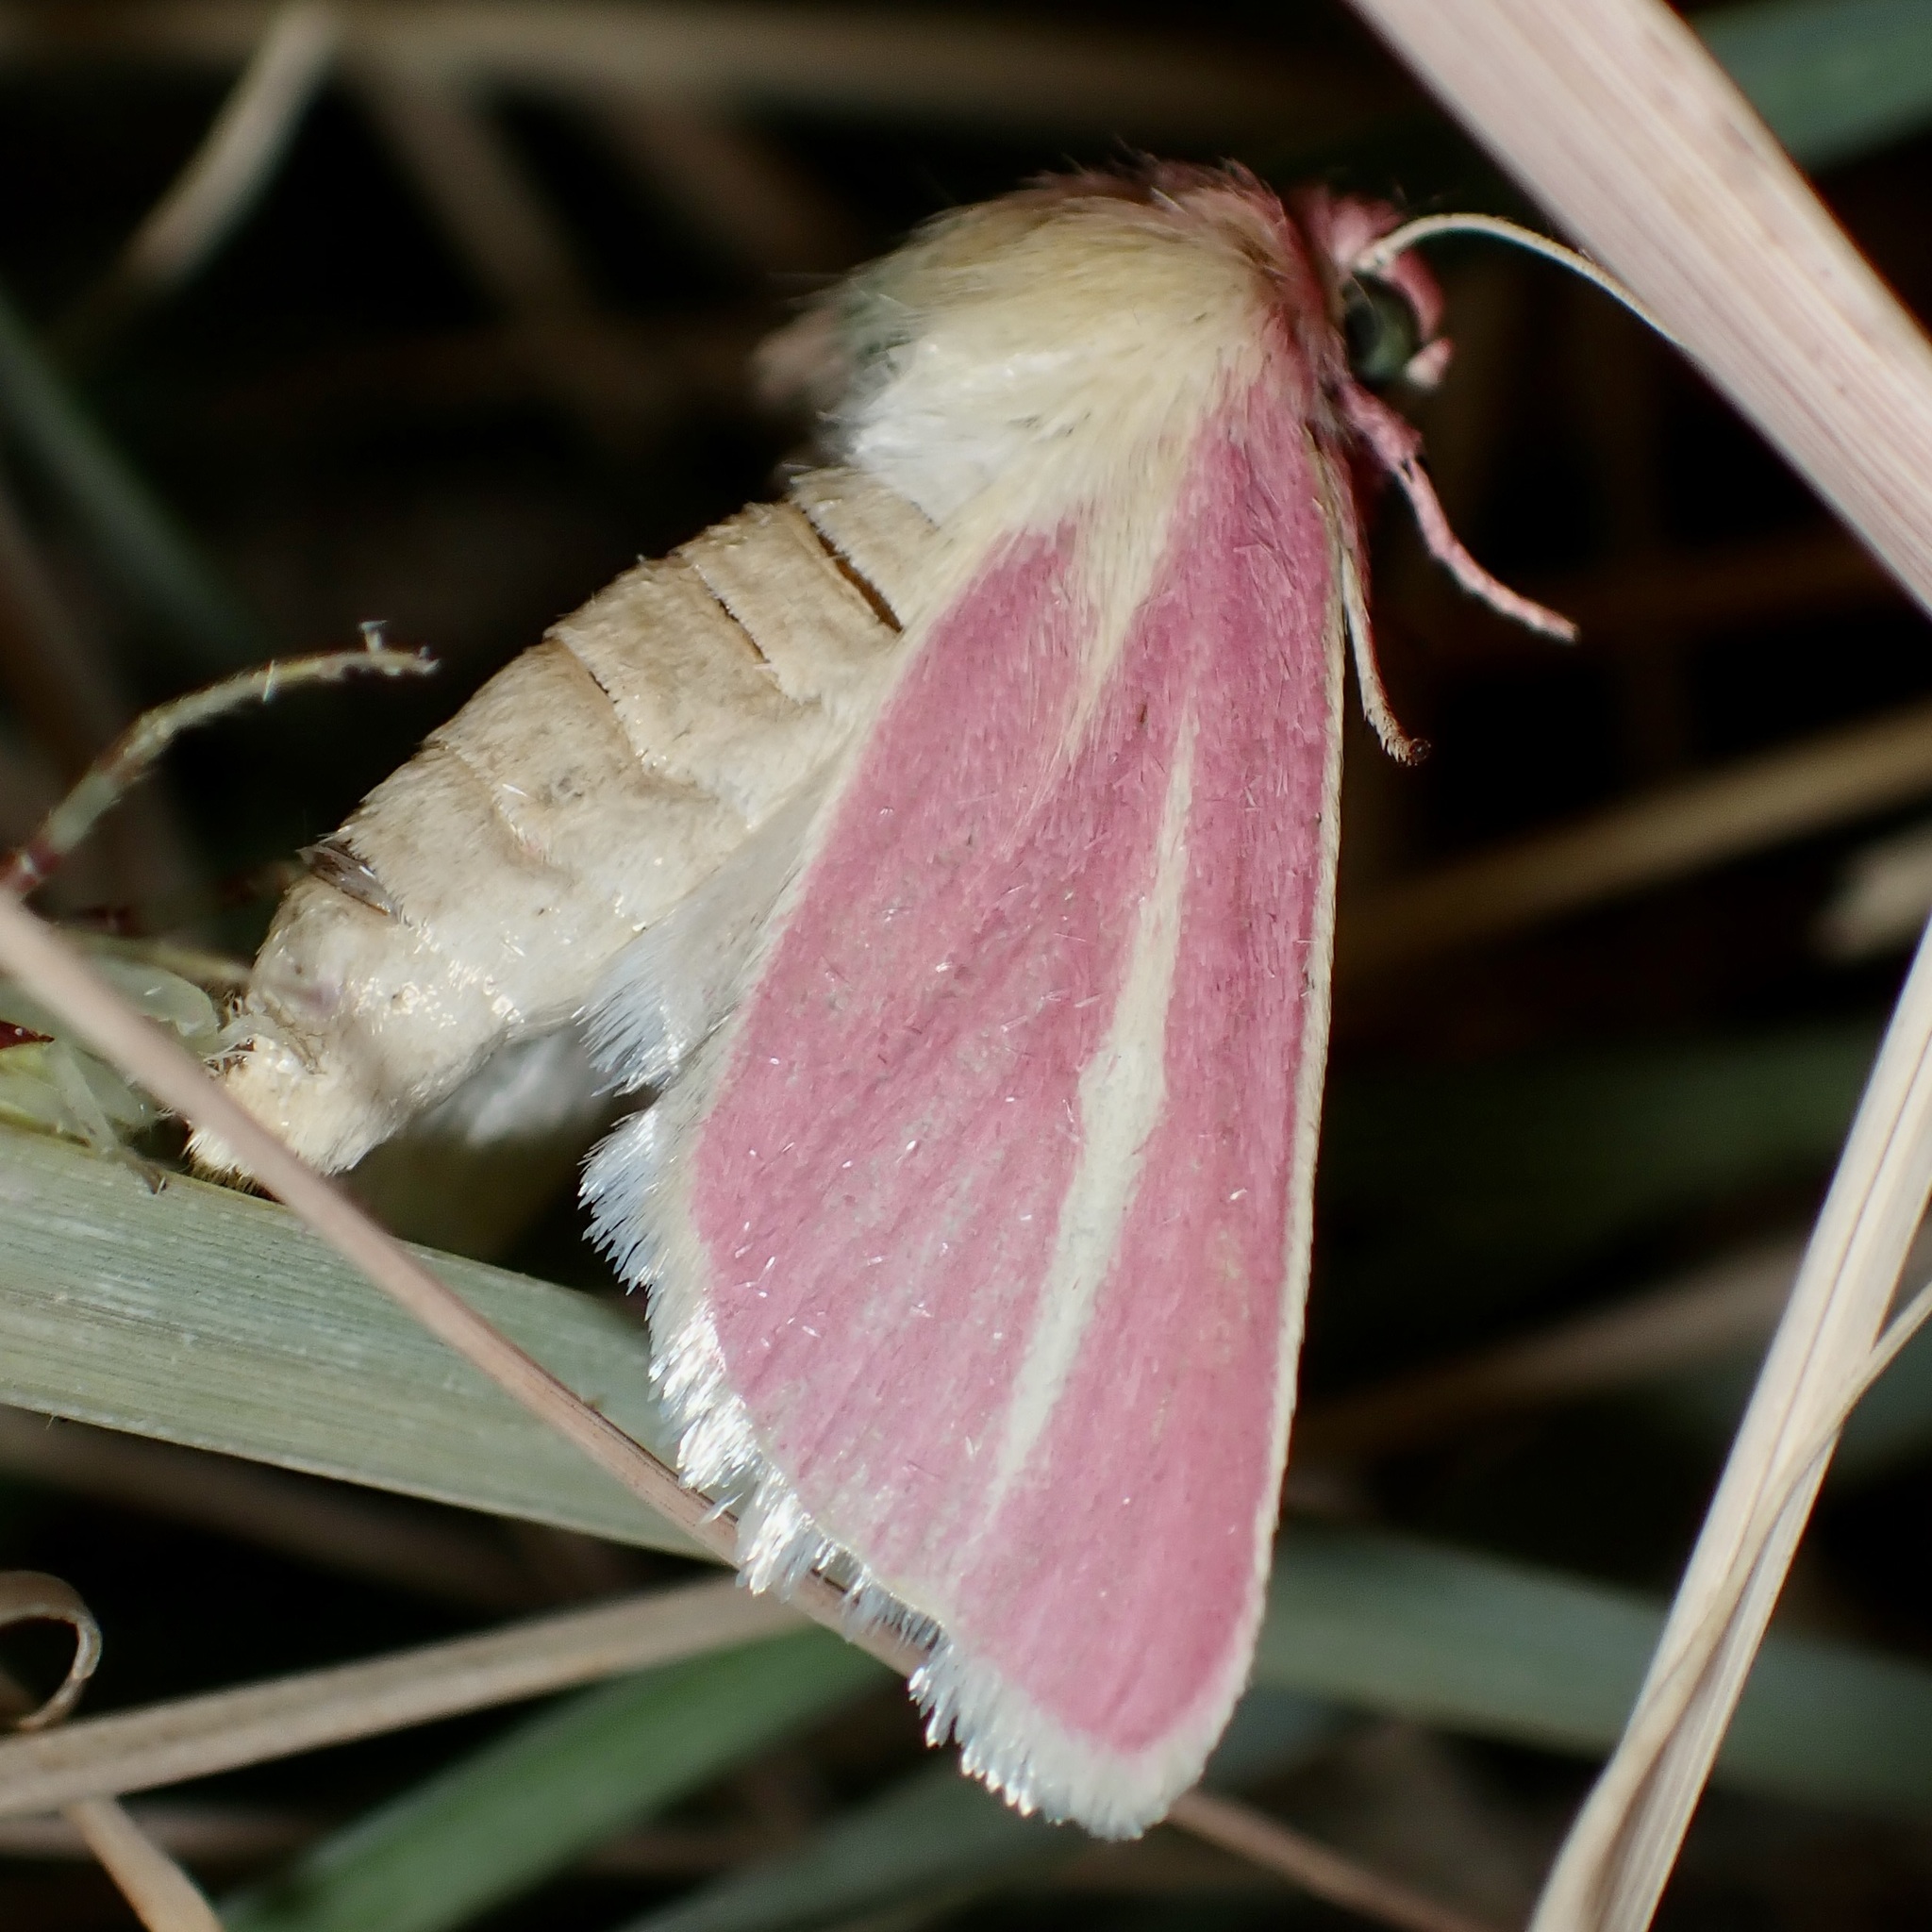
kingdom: Animalia
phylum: Arthropoda
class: Insecta
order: Lepidoptera
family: Noctuidae
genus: Heliocheilus
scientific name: Heliocheilus julia
